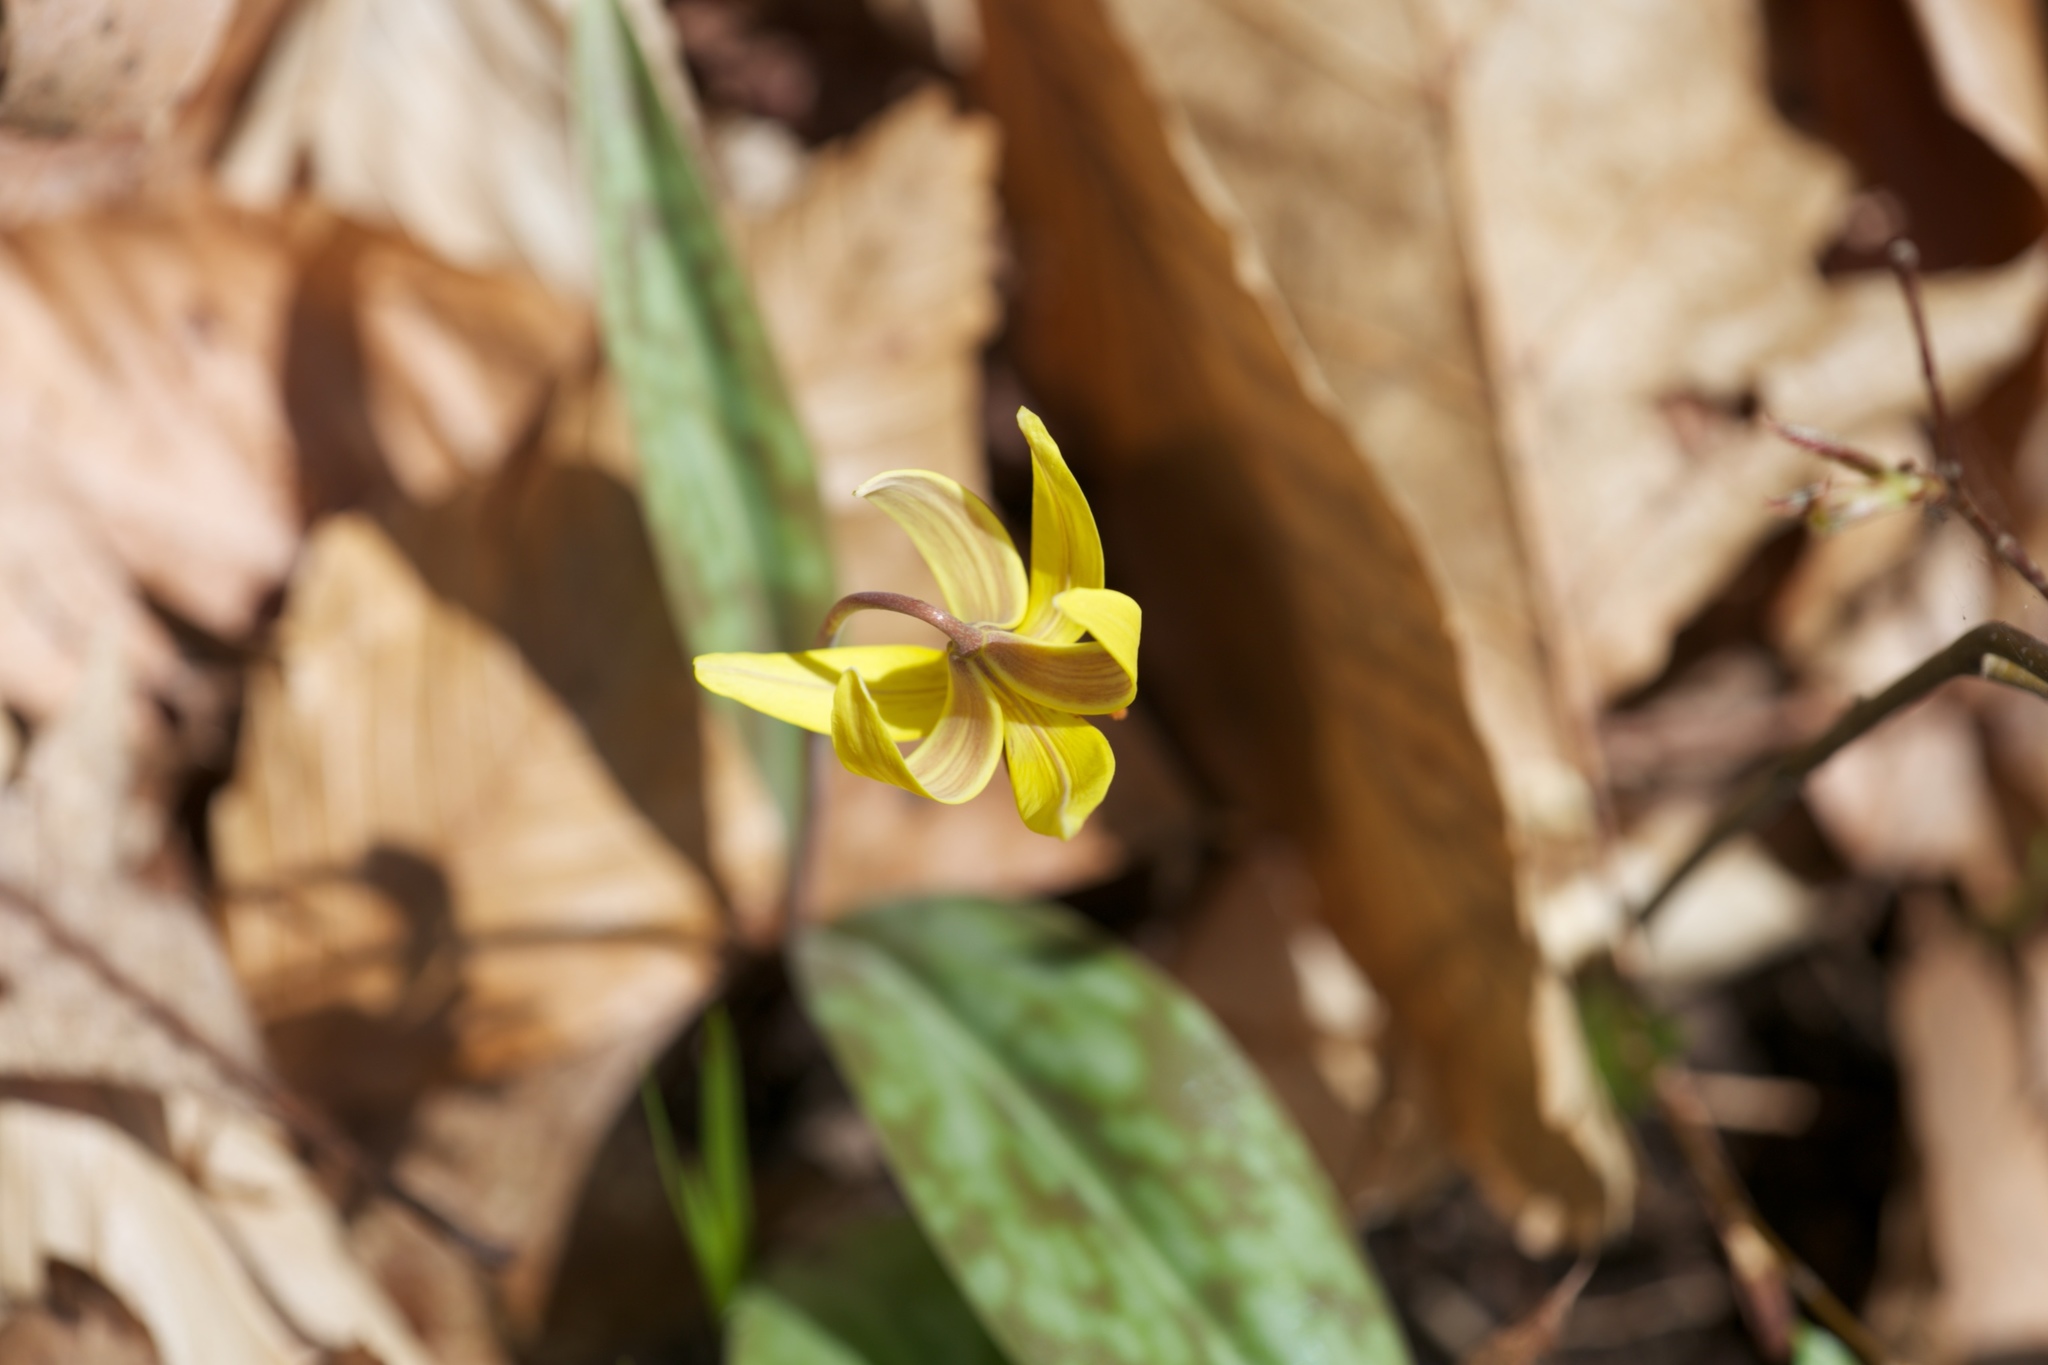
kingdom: Plantae
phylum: Tracheophyta
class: Liliopsida
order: Liliales
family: Liliaceae
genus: Erythronium
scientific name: Erythronium americanum
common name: Yellow adder's-tongue
